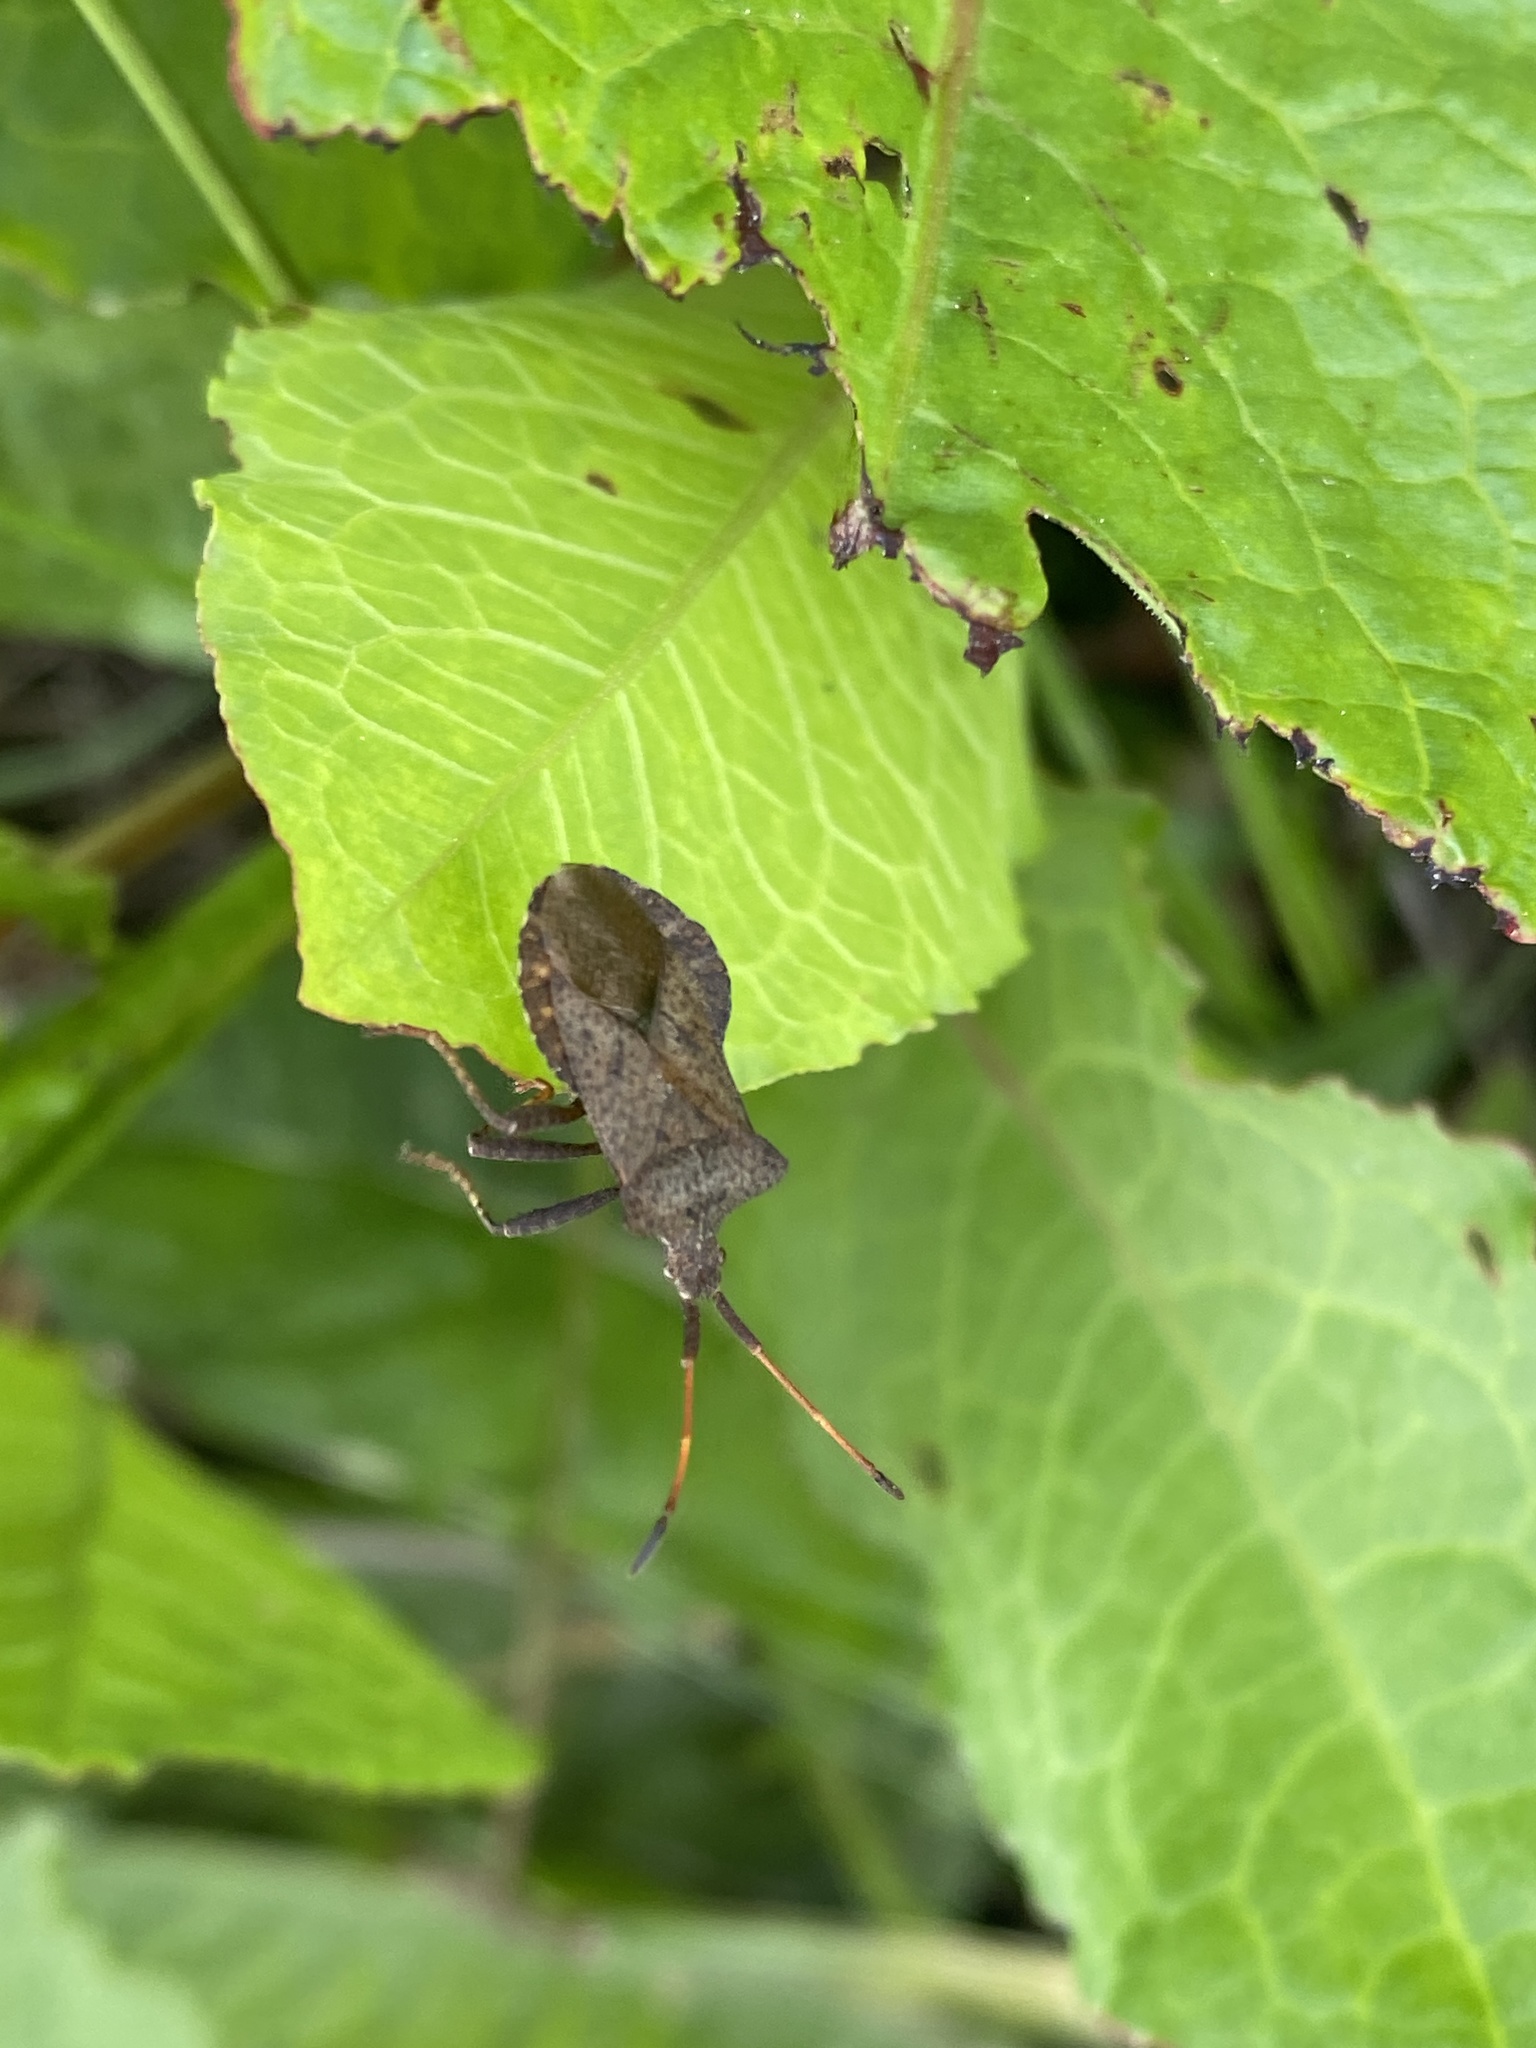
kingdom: Animalia
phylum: Arthropoda
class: Insecta
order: Hemiptera
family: Coreidae
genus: Coreus
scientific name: Coreus marginatus
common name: Dock bug
